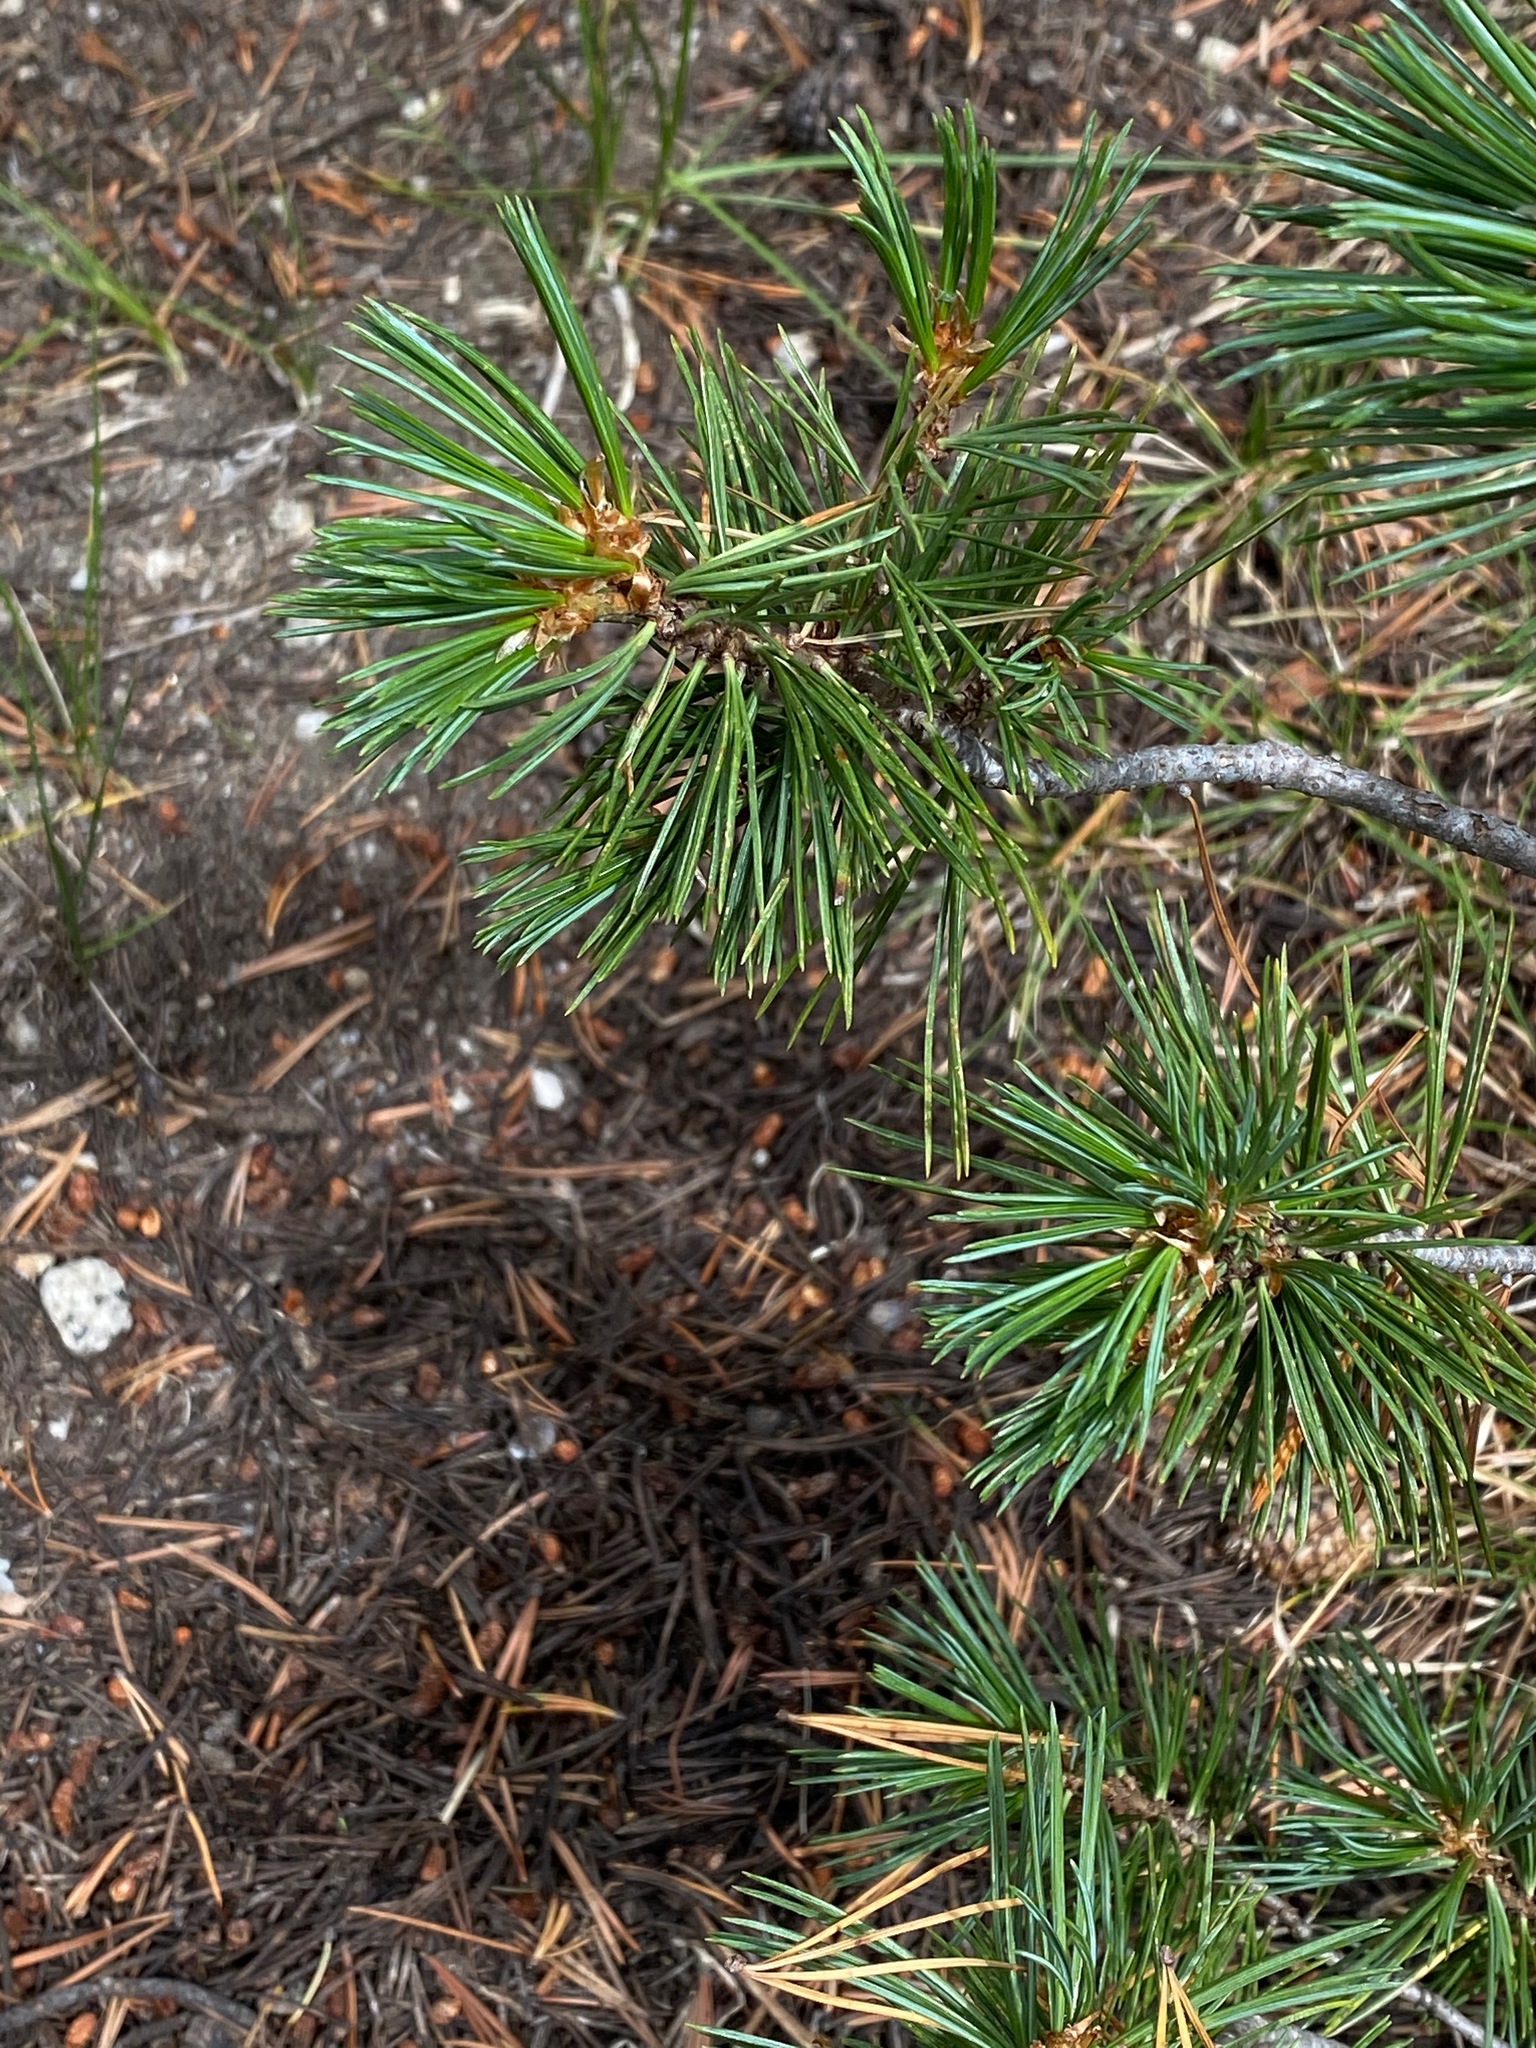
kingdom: Plantae
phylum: Tracheophyta
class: Pinopsida
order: Pinales
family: Pinaceae
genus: Pinus
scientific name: Pinus albicaulis
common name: Whitebark pine
